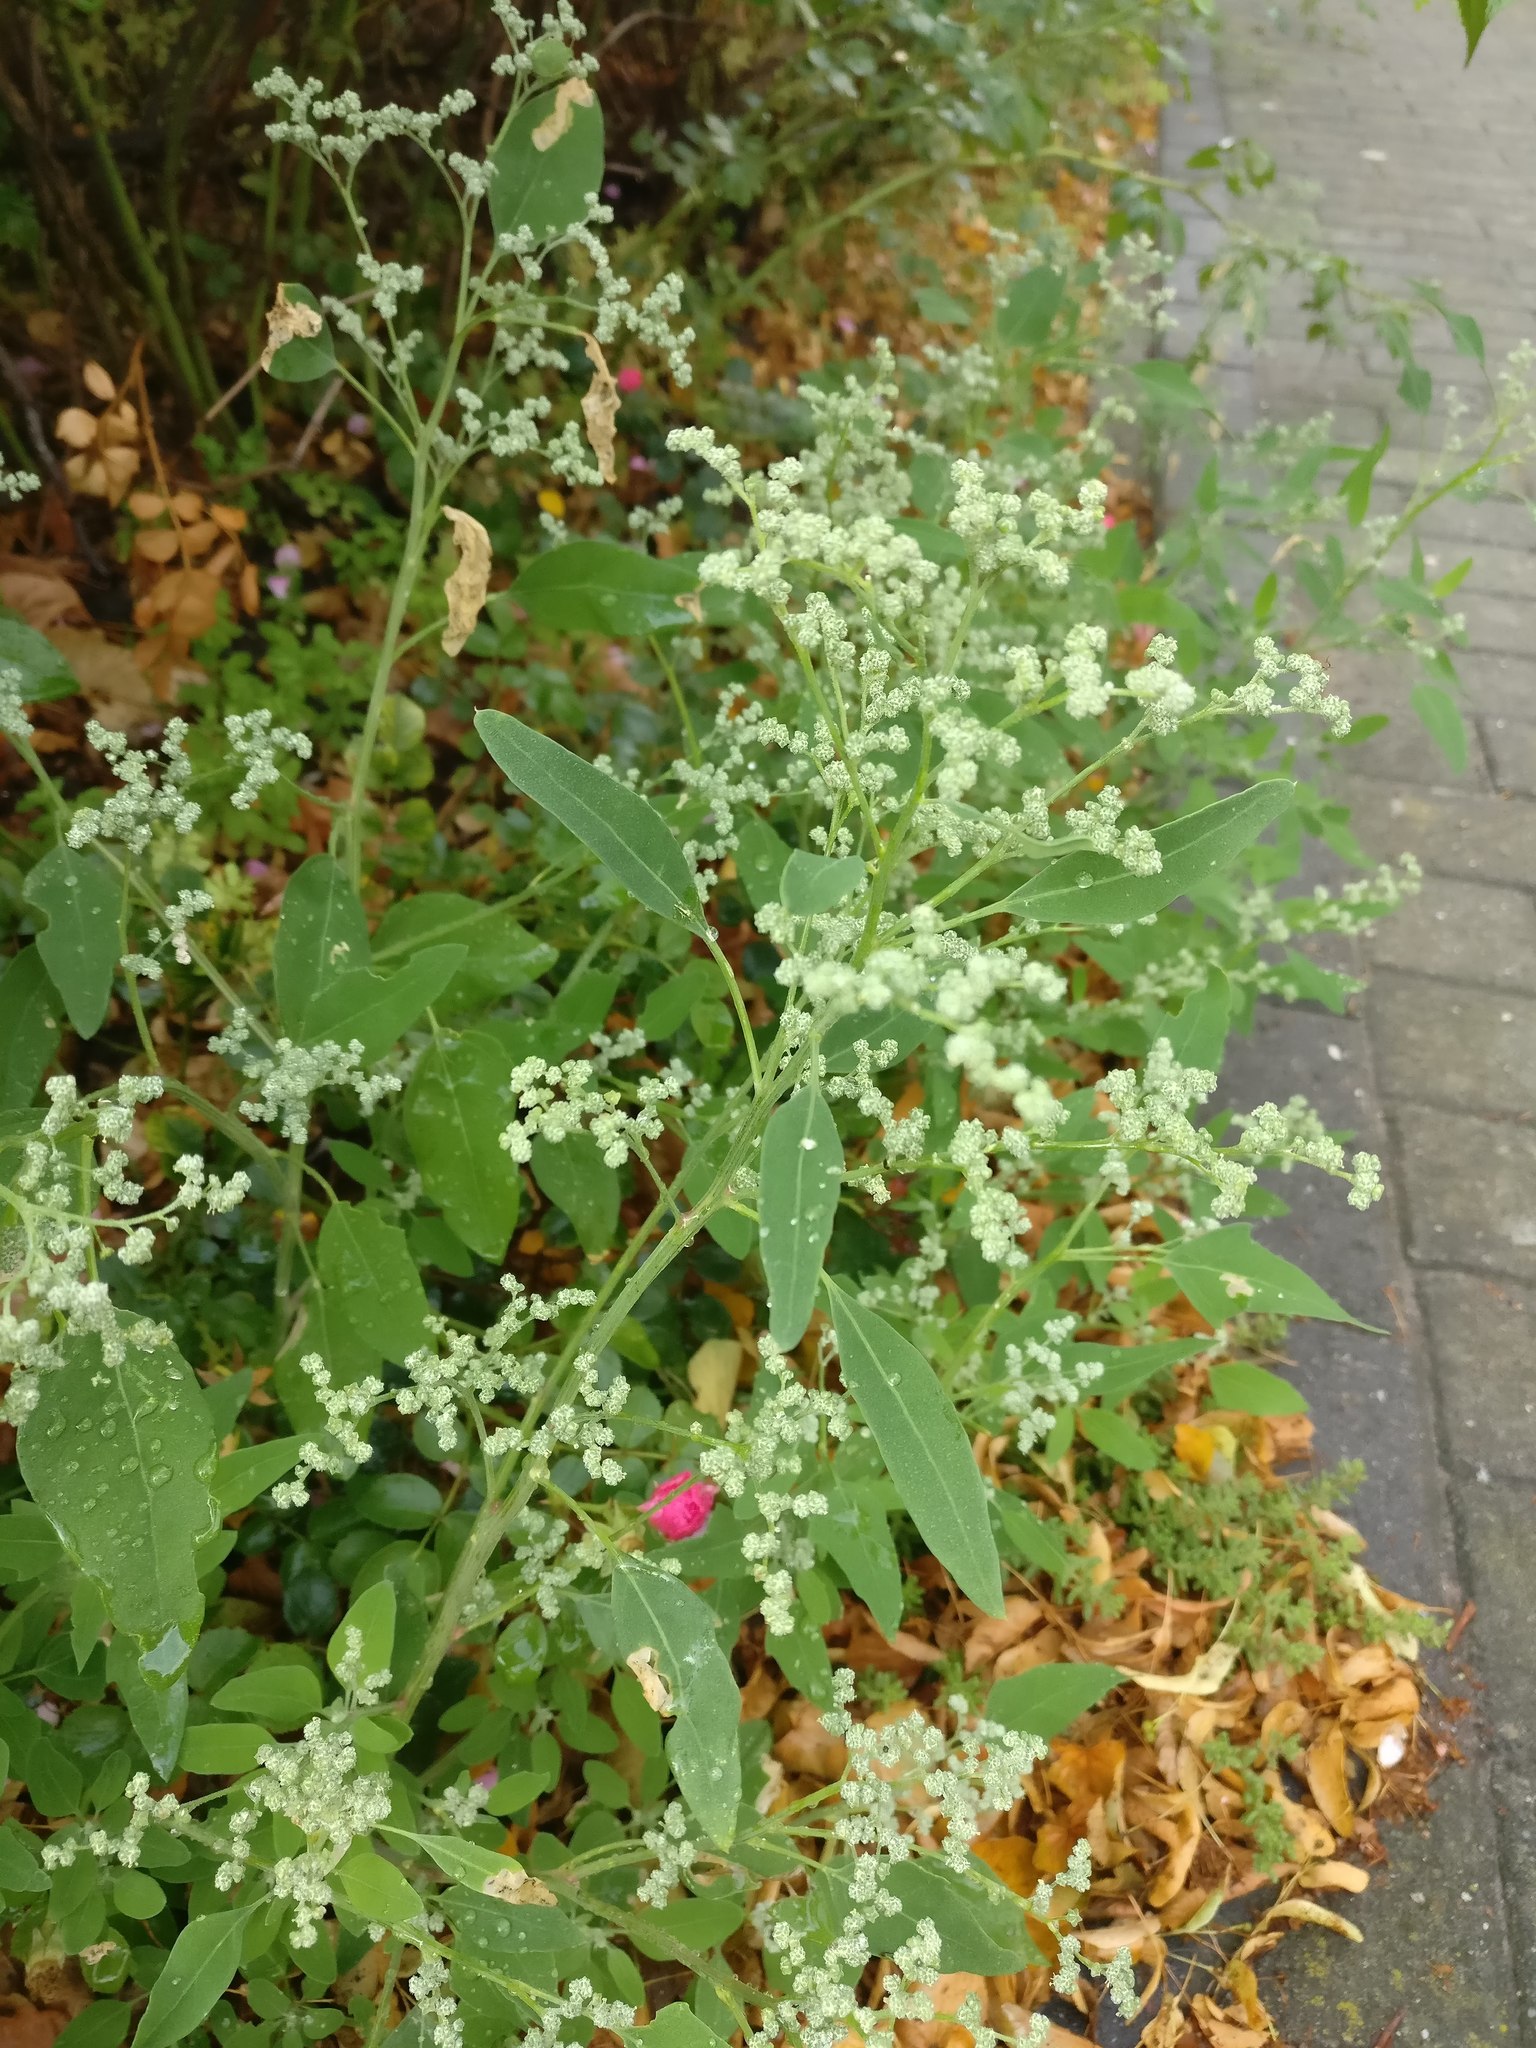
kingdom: Plantae
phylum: Tracheophyta
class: Magnoliopsida
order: Caryophyllales
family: Amaranthaceae
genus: Chenopodium
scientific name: Chenopodium album
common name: Fat-hen
